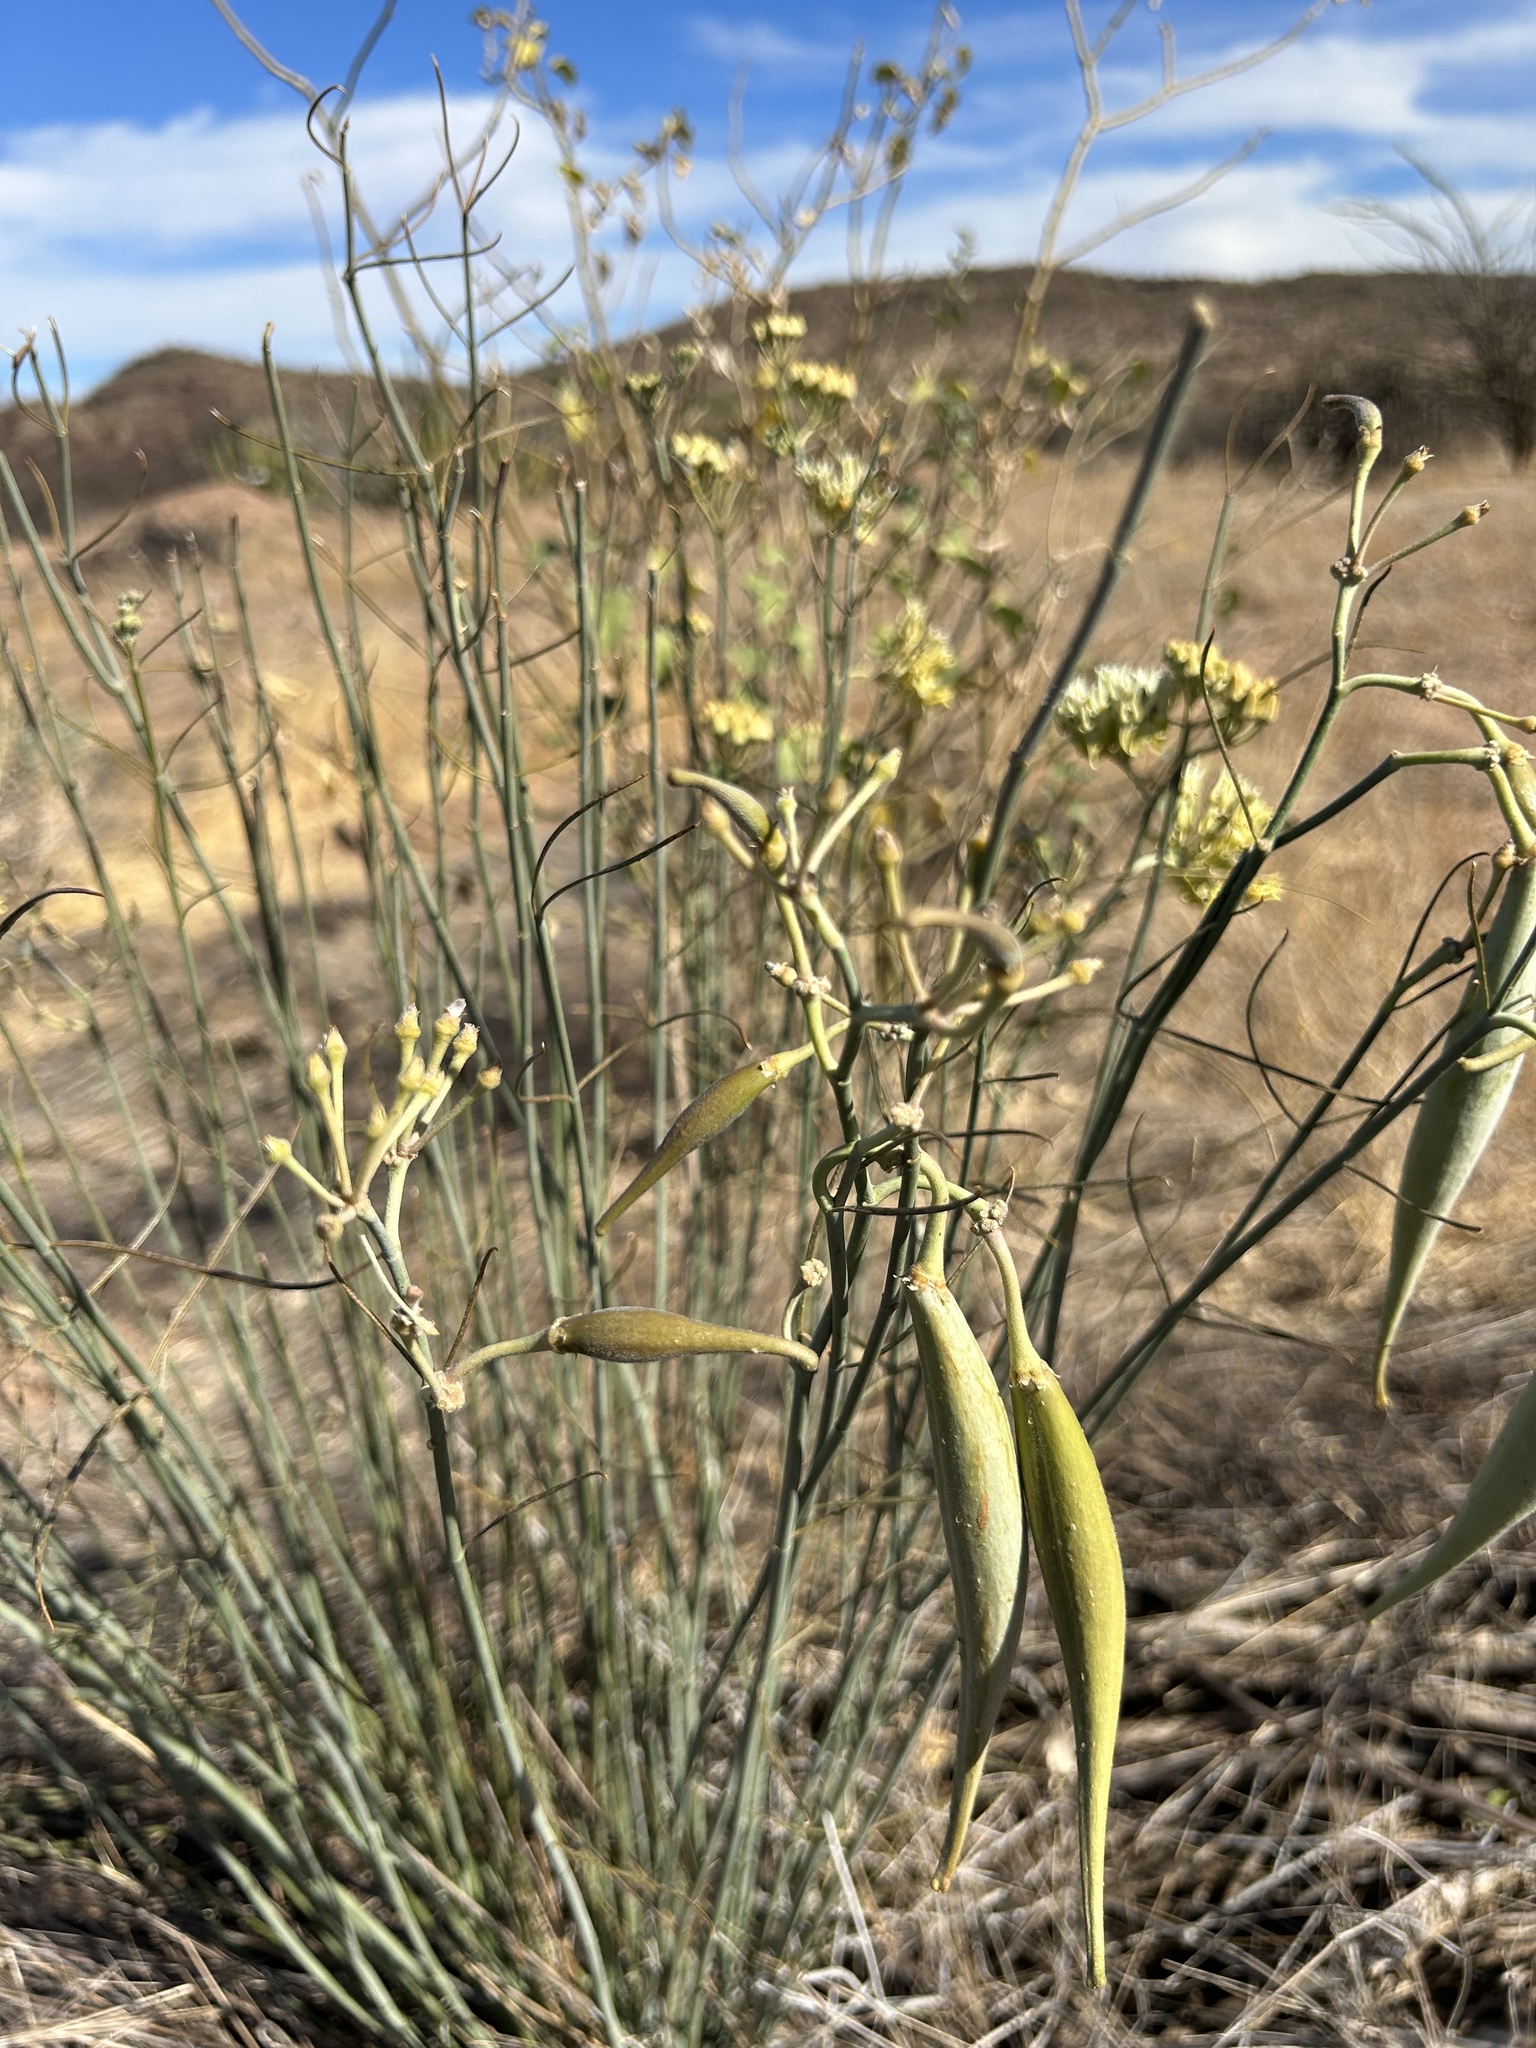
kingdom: Plantae
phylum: Tracheophyta
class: Magnoliopsida
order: Gentianales
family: Apocynaceae
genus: Asclepias
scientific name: Asclepias subulata
